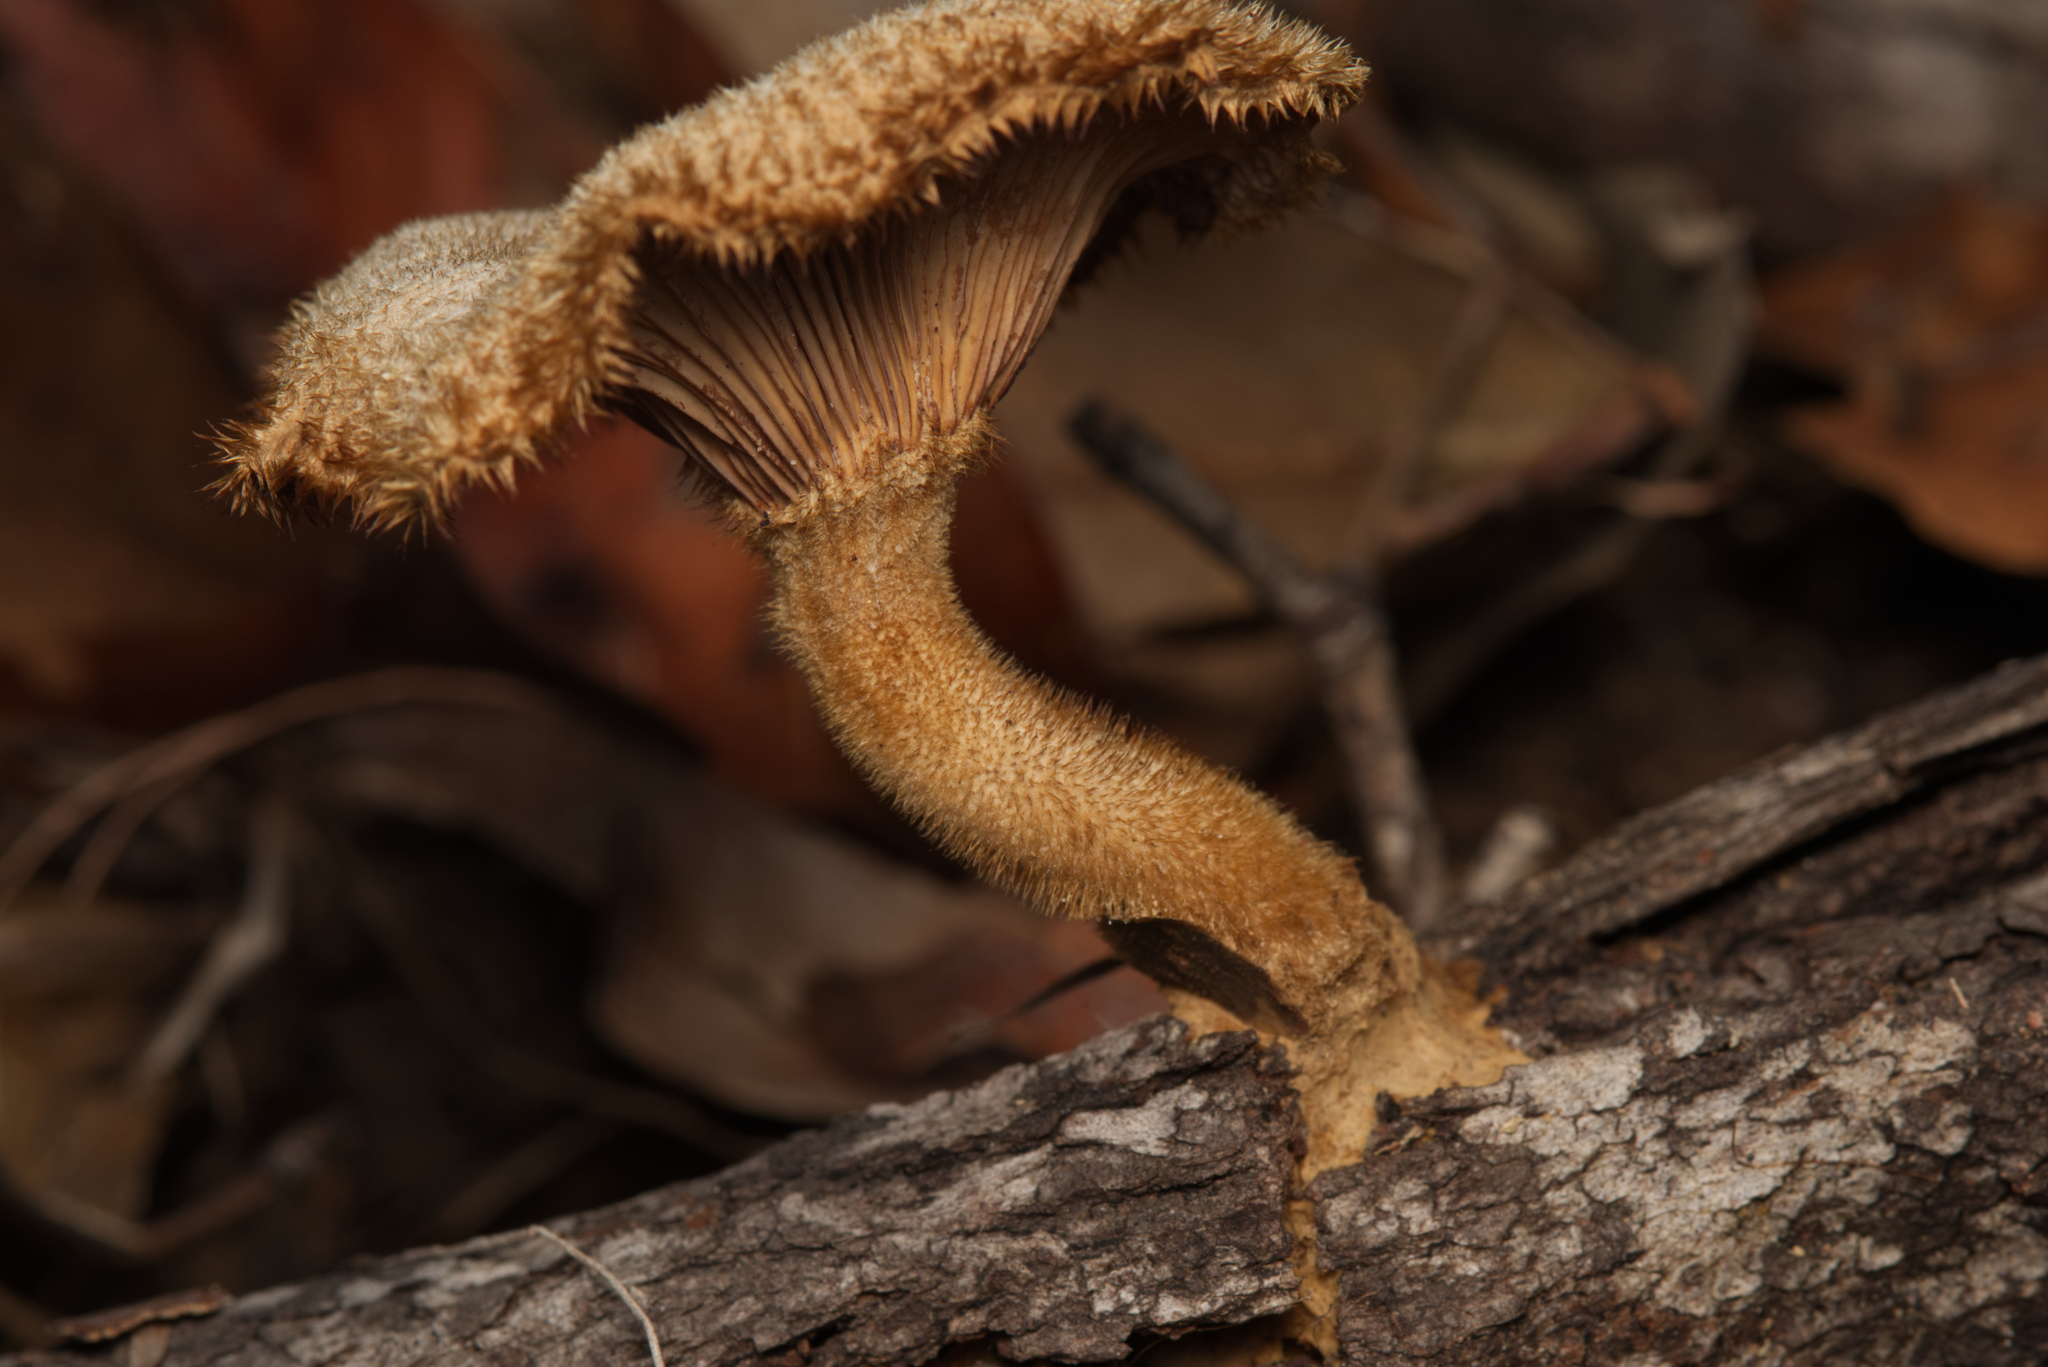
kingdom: Fungi
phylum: Basidiomycota
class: Agaricomycetes
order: Polyporales
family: Polyporaceae
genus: Lentinus
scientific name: Lentinus fasciatus
